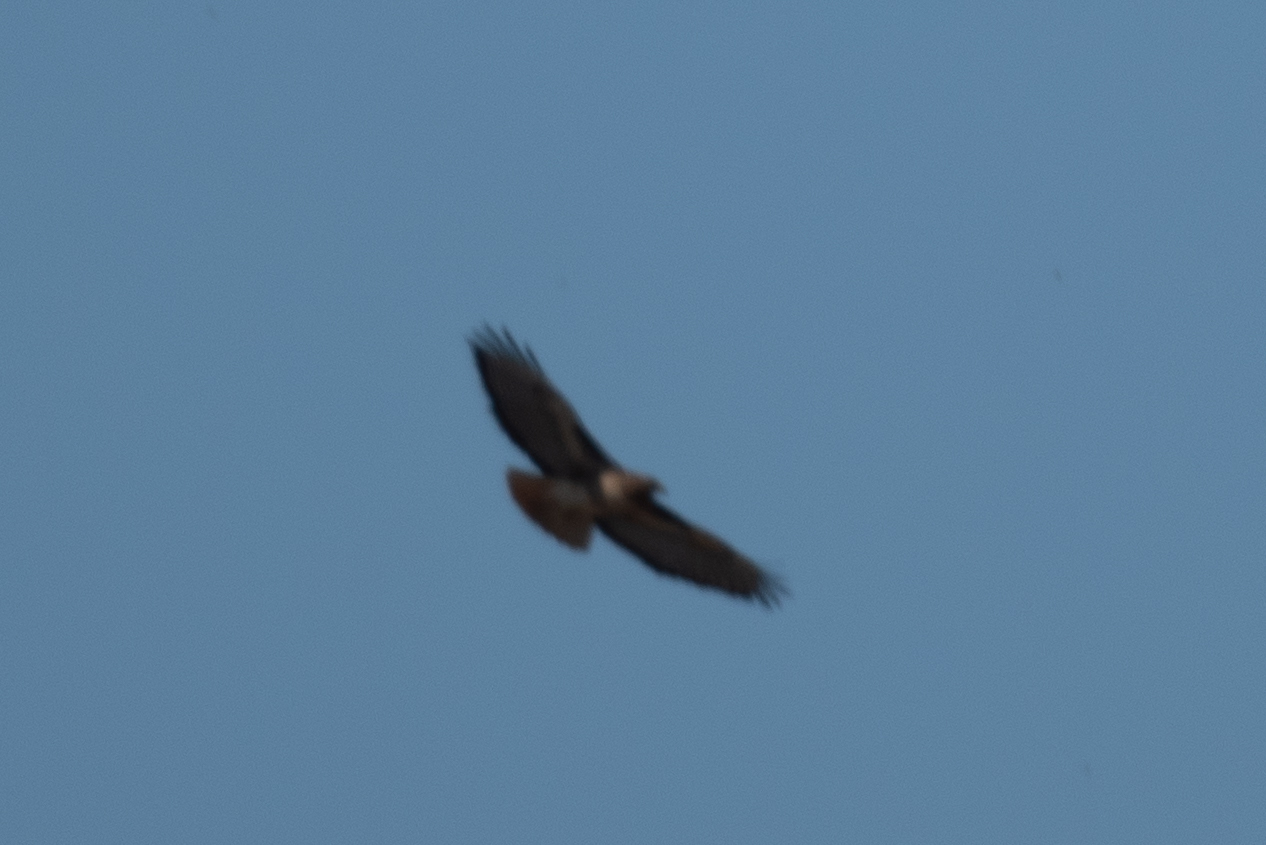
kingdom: Animalia
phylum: Chordata
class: Aves
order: Accipitriformes
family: Accipitridae
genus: Buteo
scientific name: Buteo jamaicensis
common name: Red-tailed hawk
